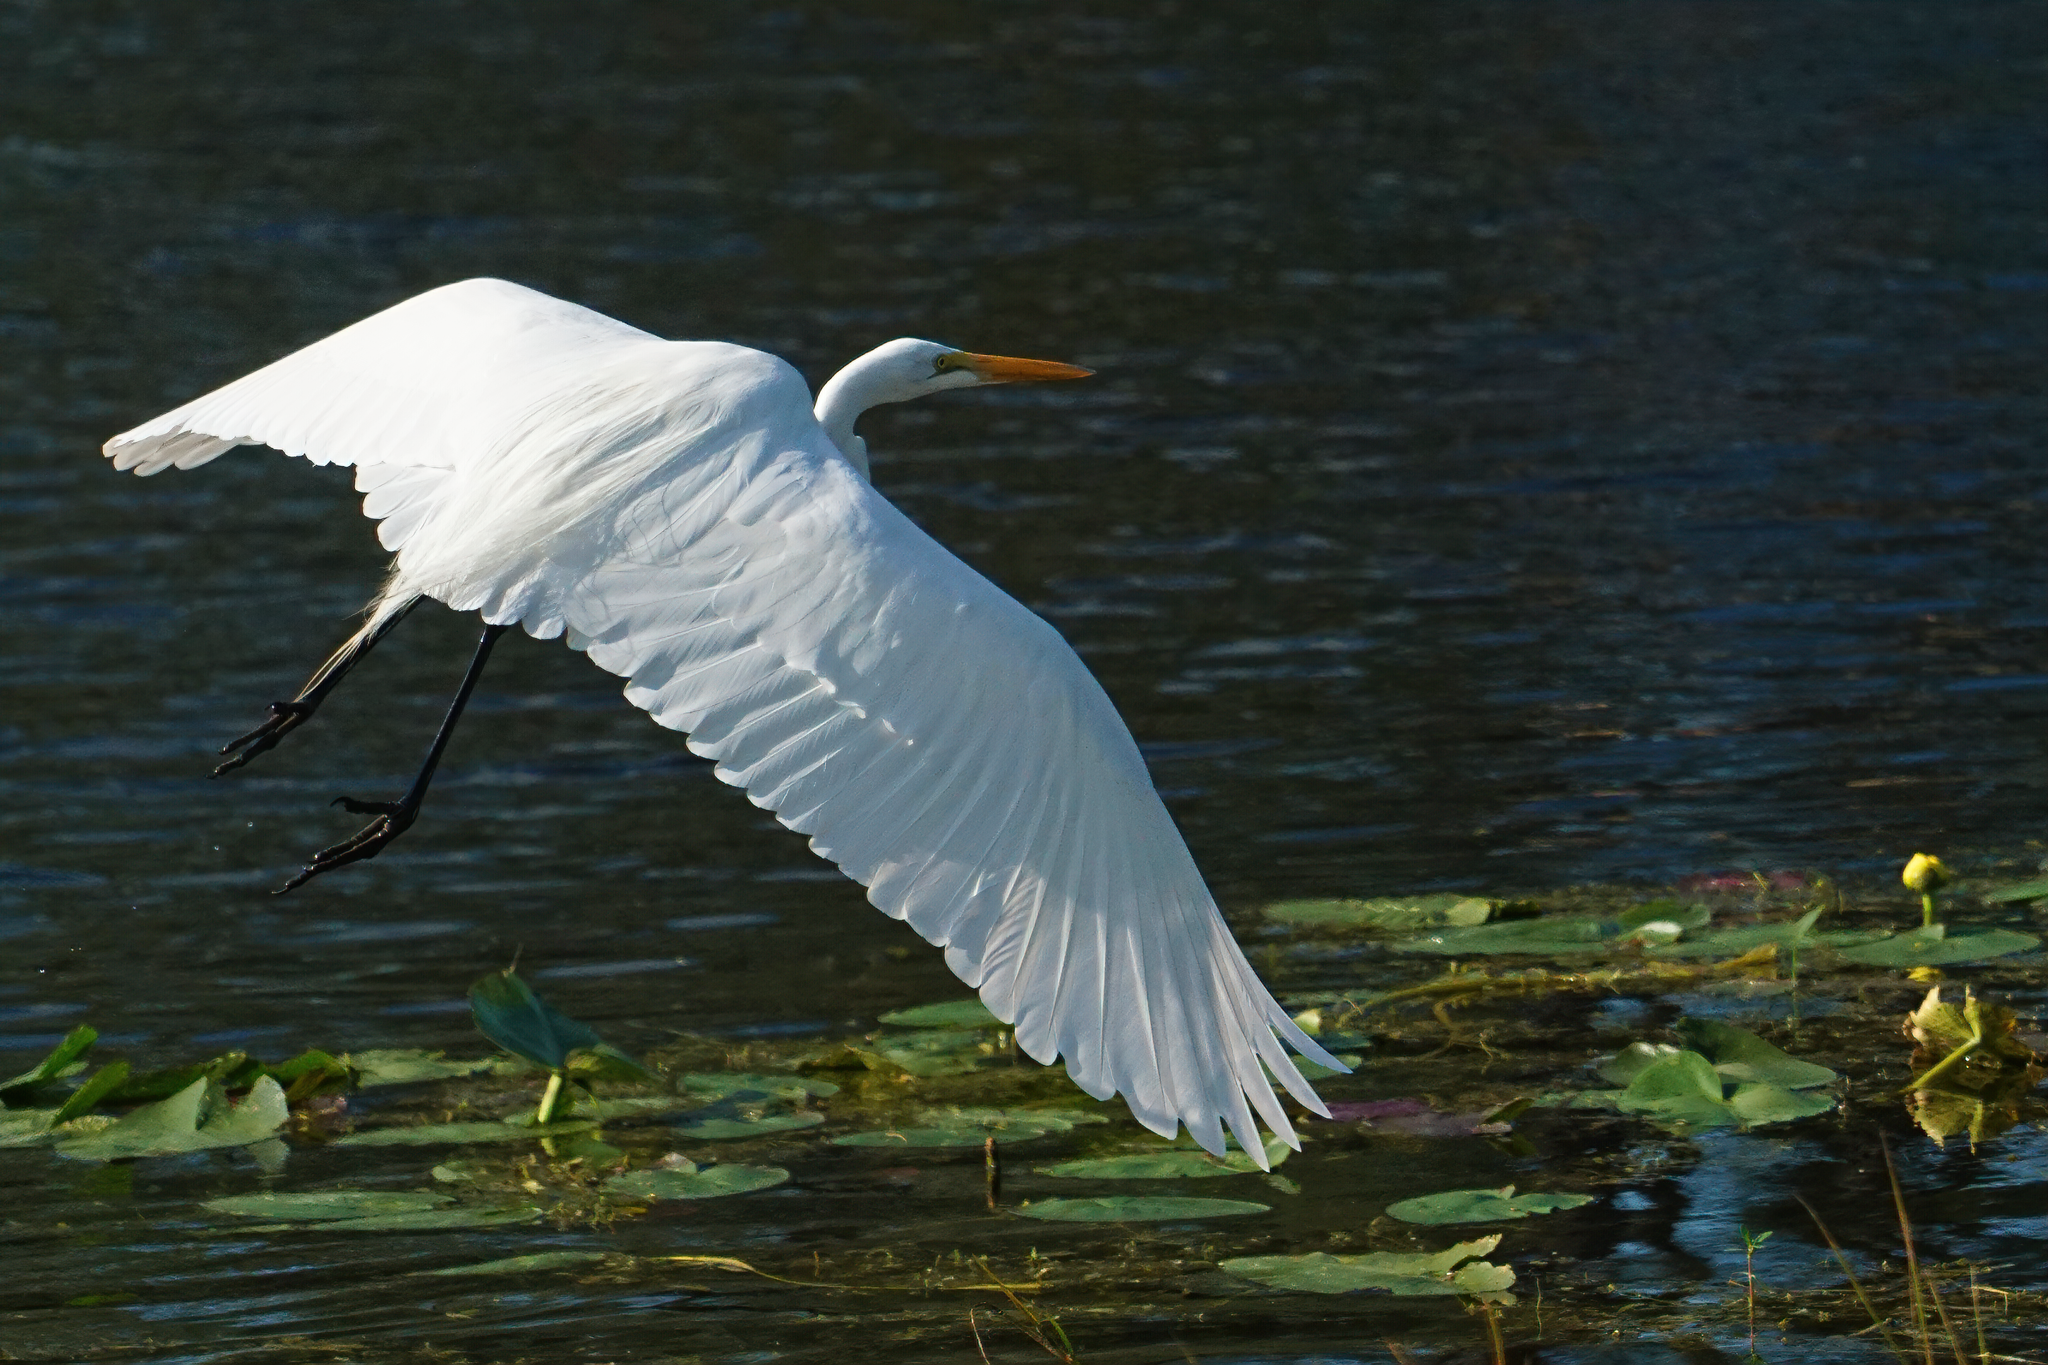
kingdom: Animalia
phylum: Chordata
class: Aves
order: Pelecaniformes
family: Ardeidae
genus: Ardea
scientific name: Ardea alba
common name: Great egret
